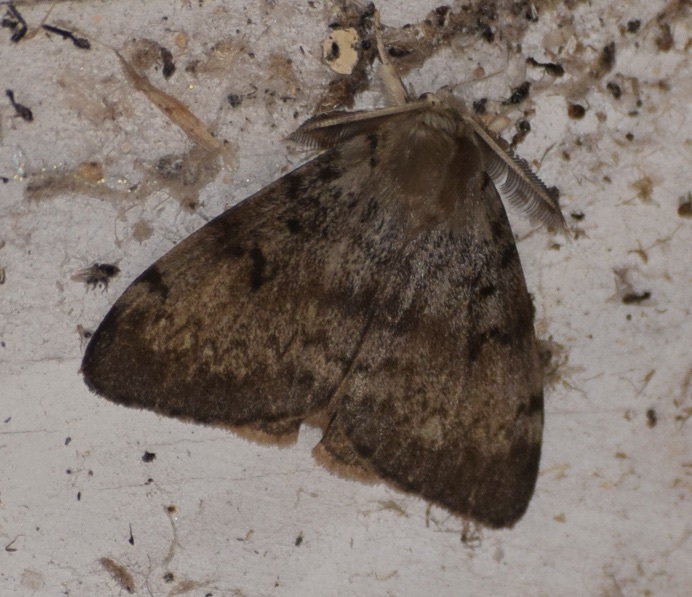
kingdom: Animalia
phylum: Arthropoda
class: Insecta
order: Lepidoptera
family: Erebidae
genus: Lymantria
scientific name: Lymantria dispar
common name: Gypsy moth
